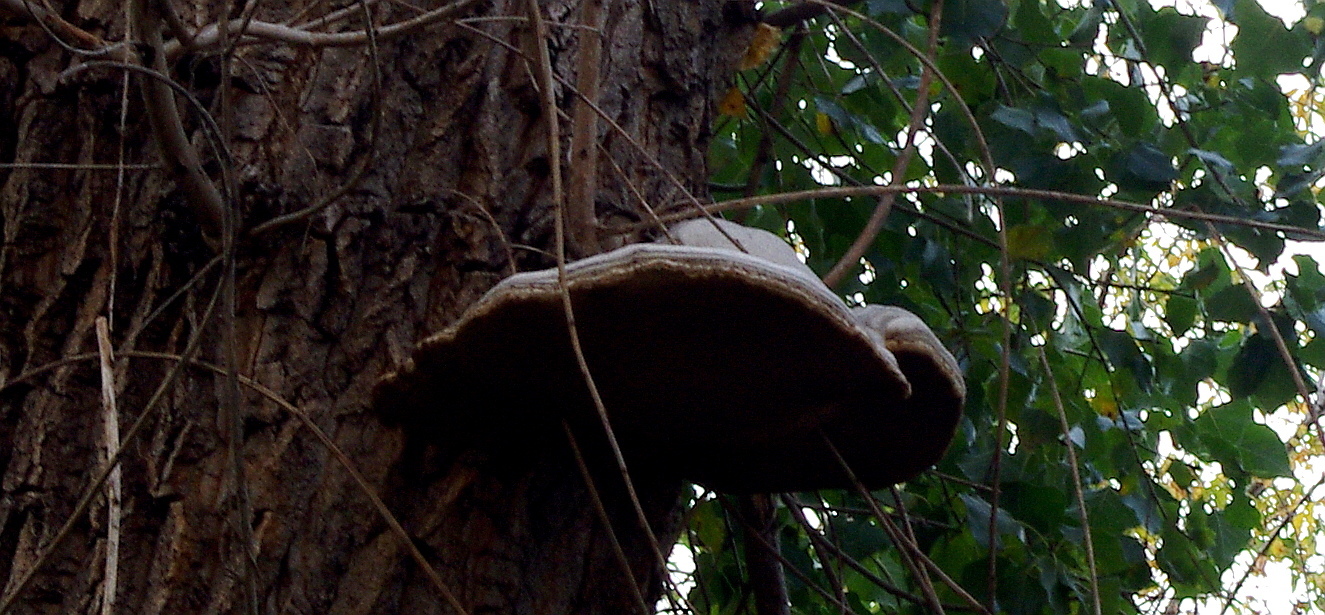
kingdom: Fungi
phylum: Basidiomycota
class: Agaricomycetes
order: Polyporales
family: Polyporaceae
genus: Fomes
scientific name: Fomes fomentarius
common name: Hoof fungus
